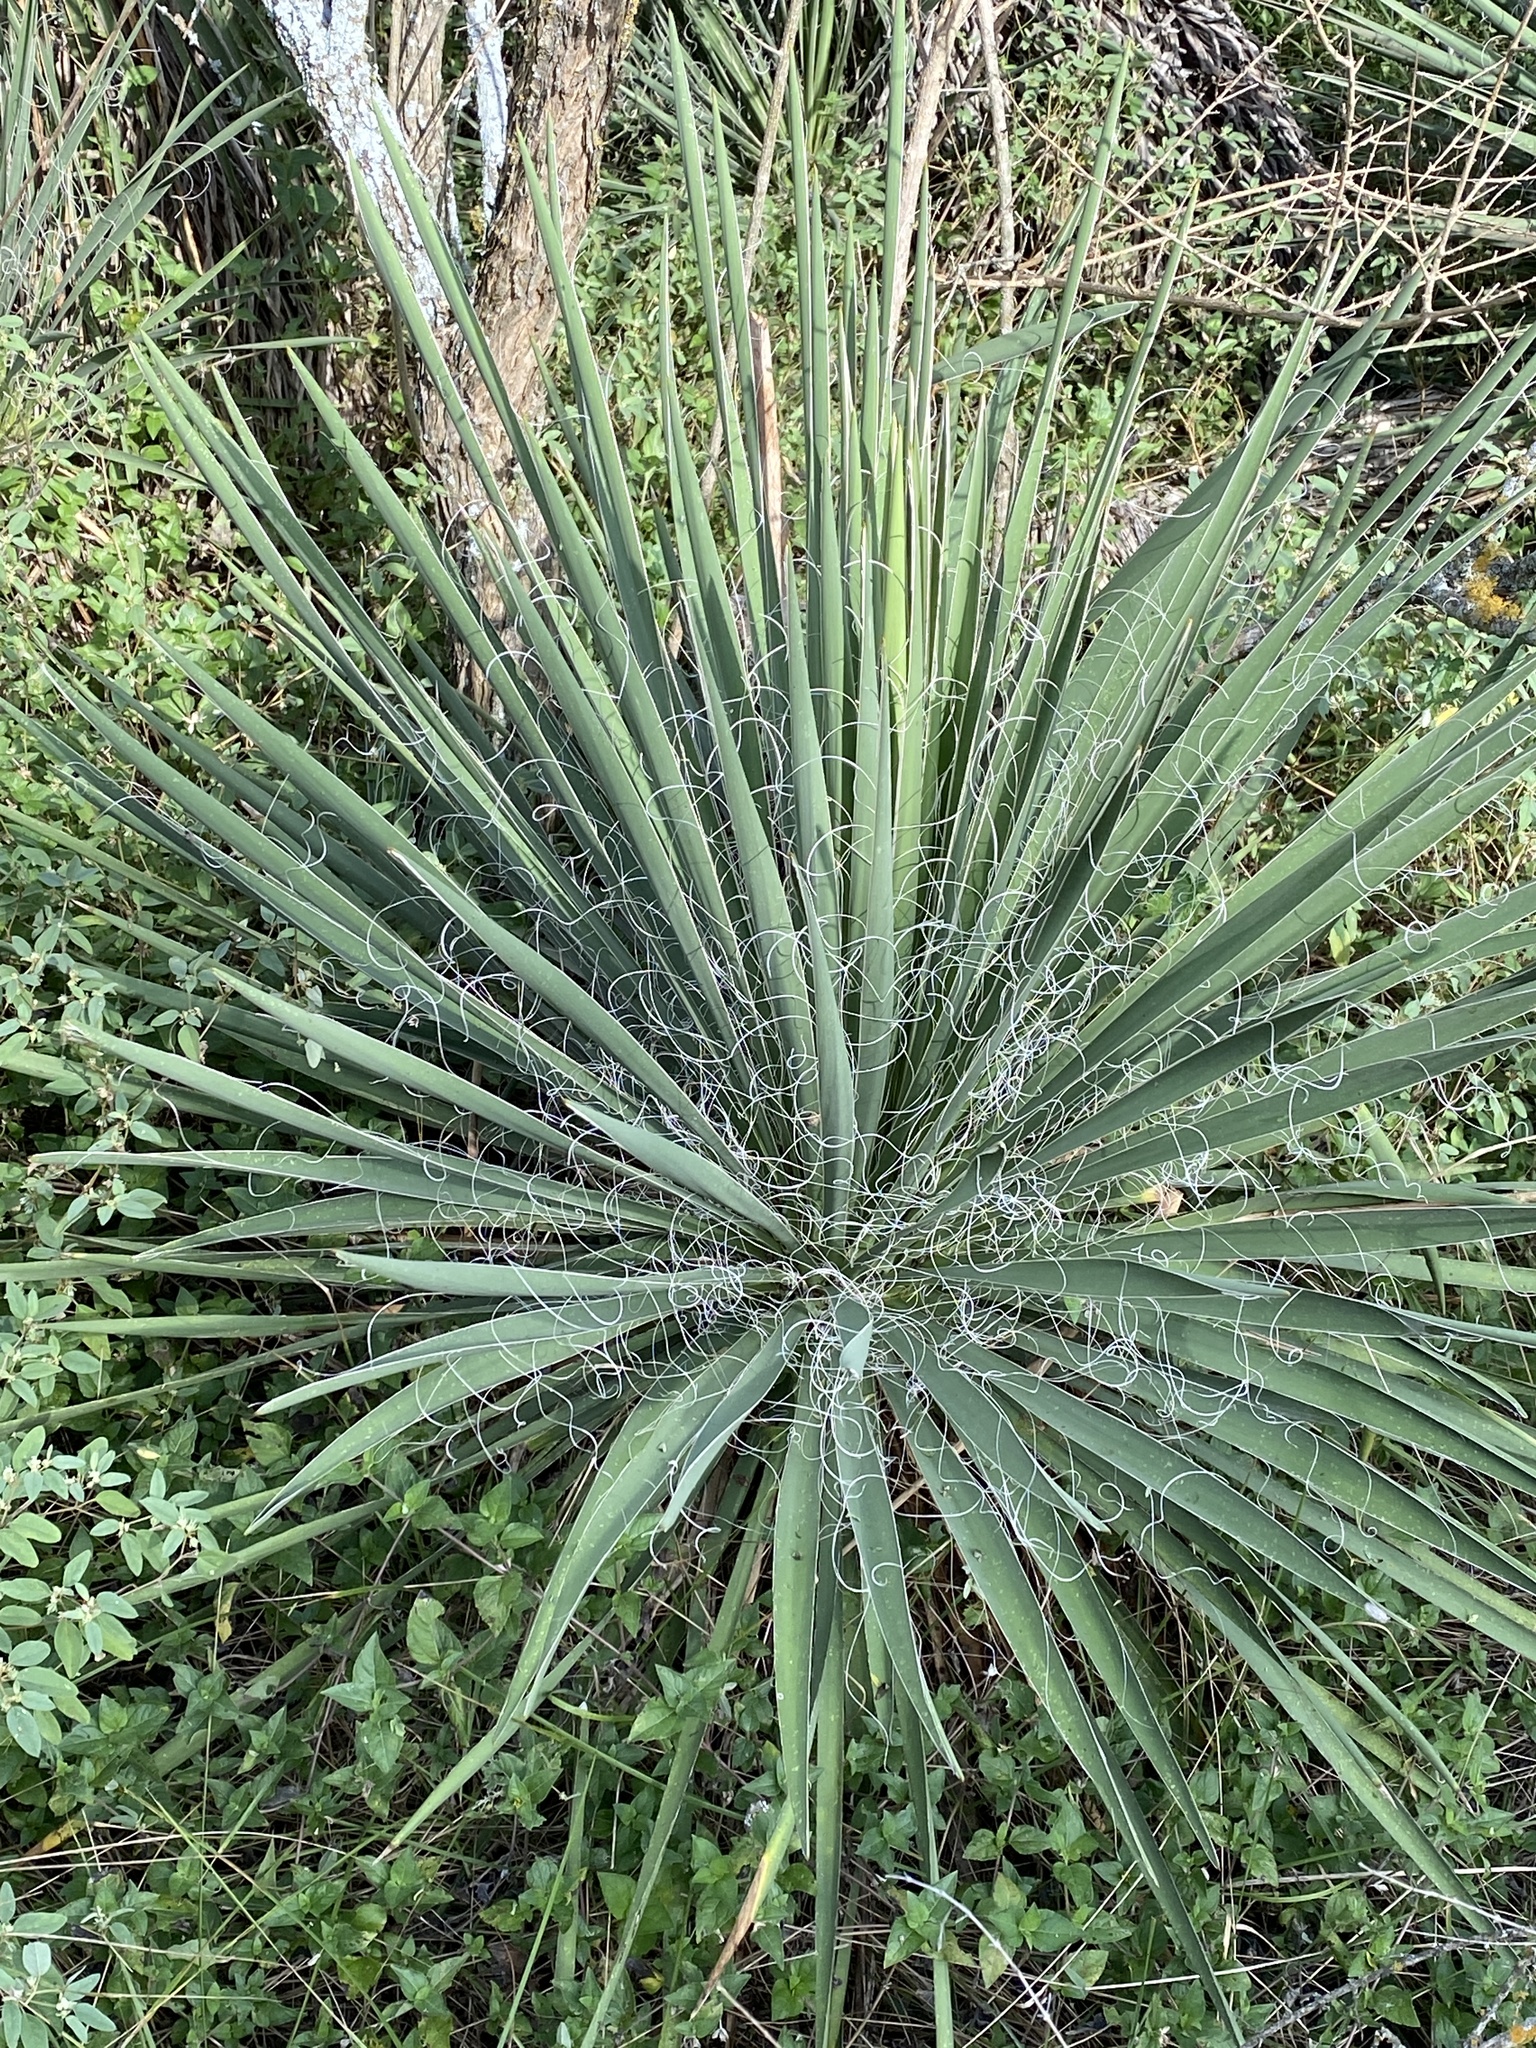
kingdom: Plantae
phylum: Tracheophyta
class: Liliopsida
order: Asparagales
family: Asparagaceae
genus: Yucca
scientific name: Yucca constricta
